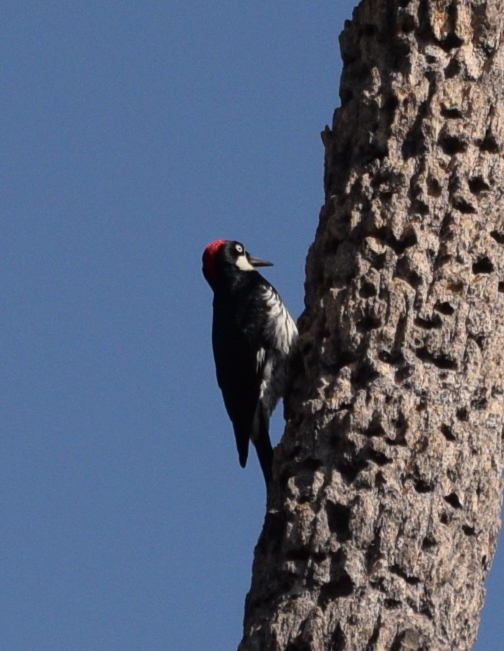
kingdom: Animalia
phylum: Chordata
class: Aves
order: Piciformes
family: Picidae
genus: Melanerpes
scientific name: Melanerpes formicivorus
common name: Acorn woodpecker
